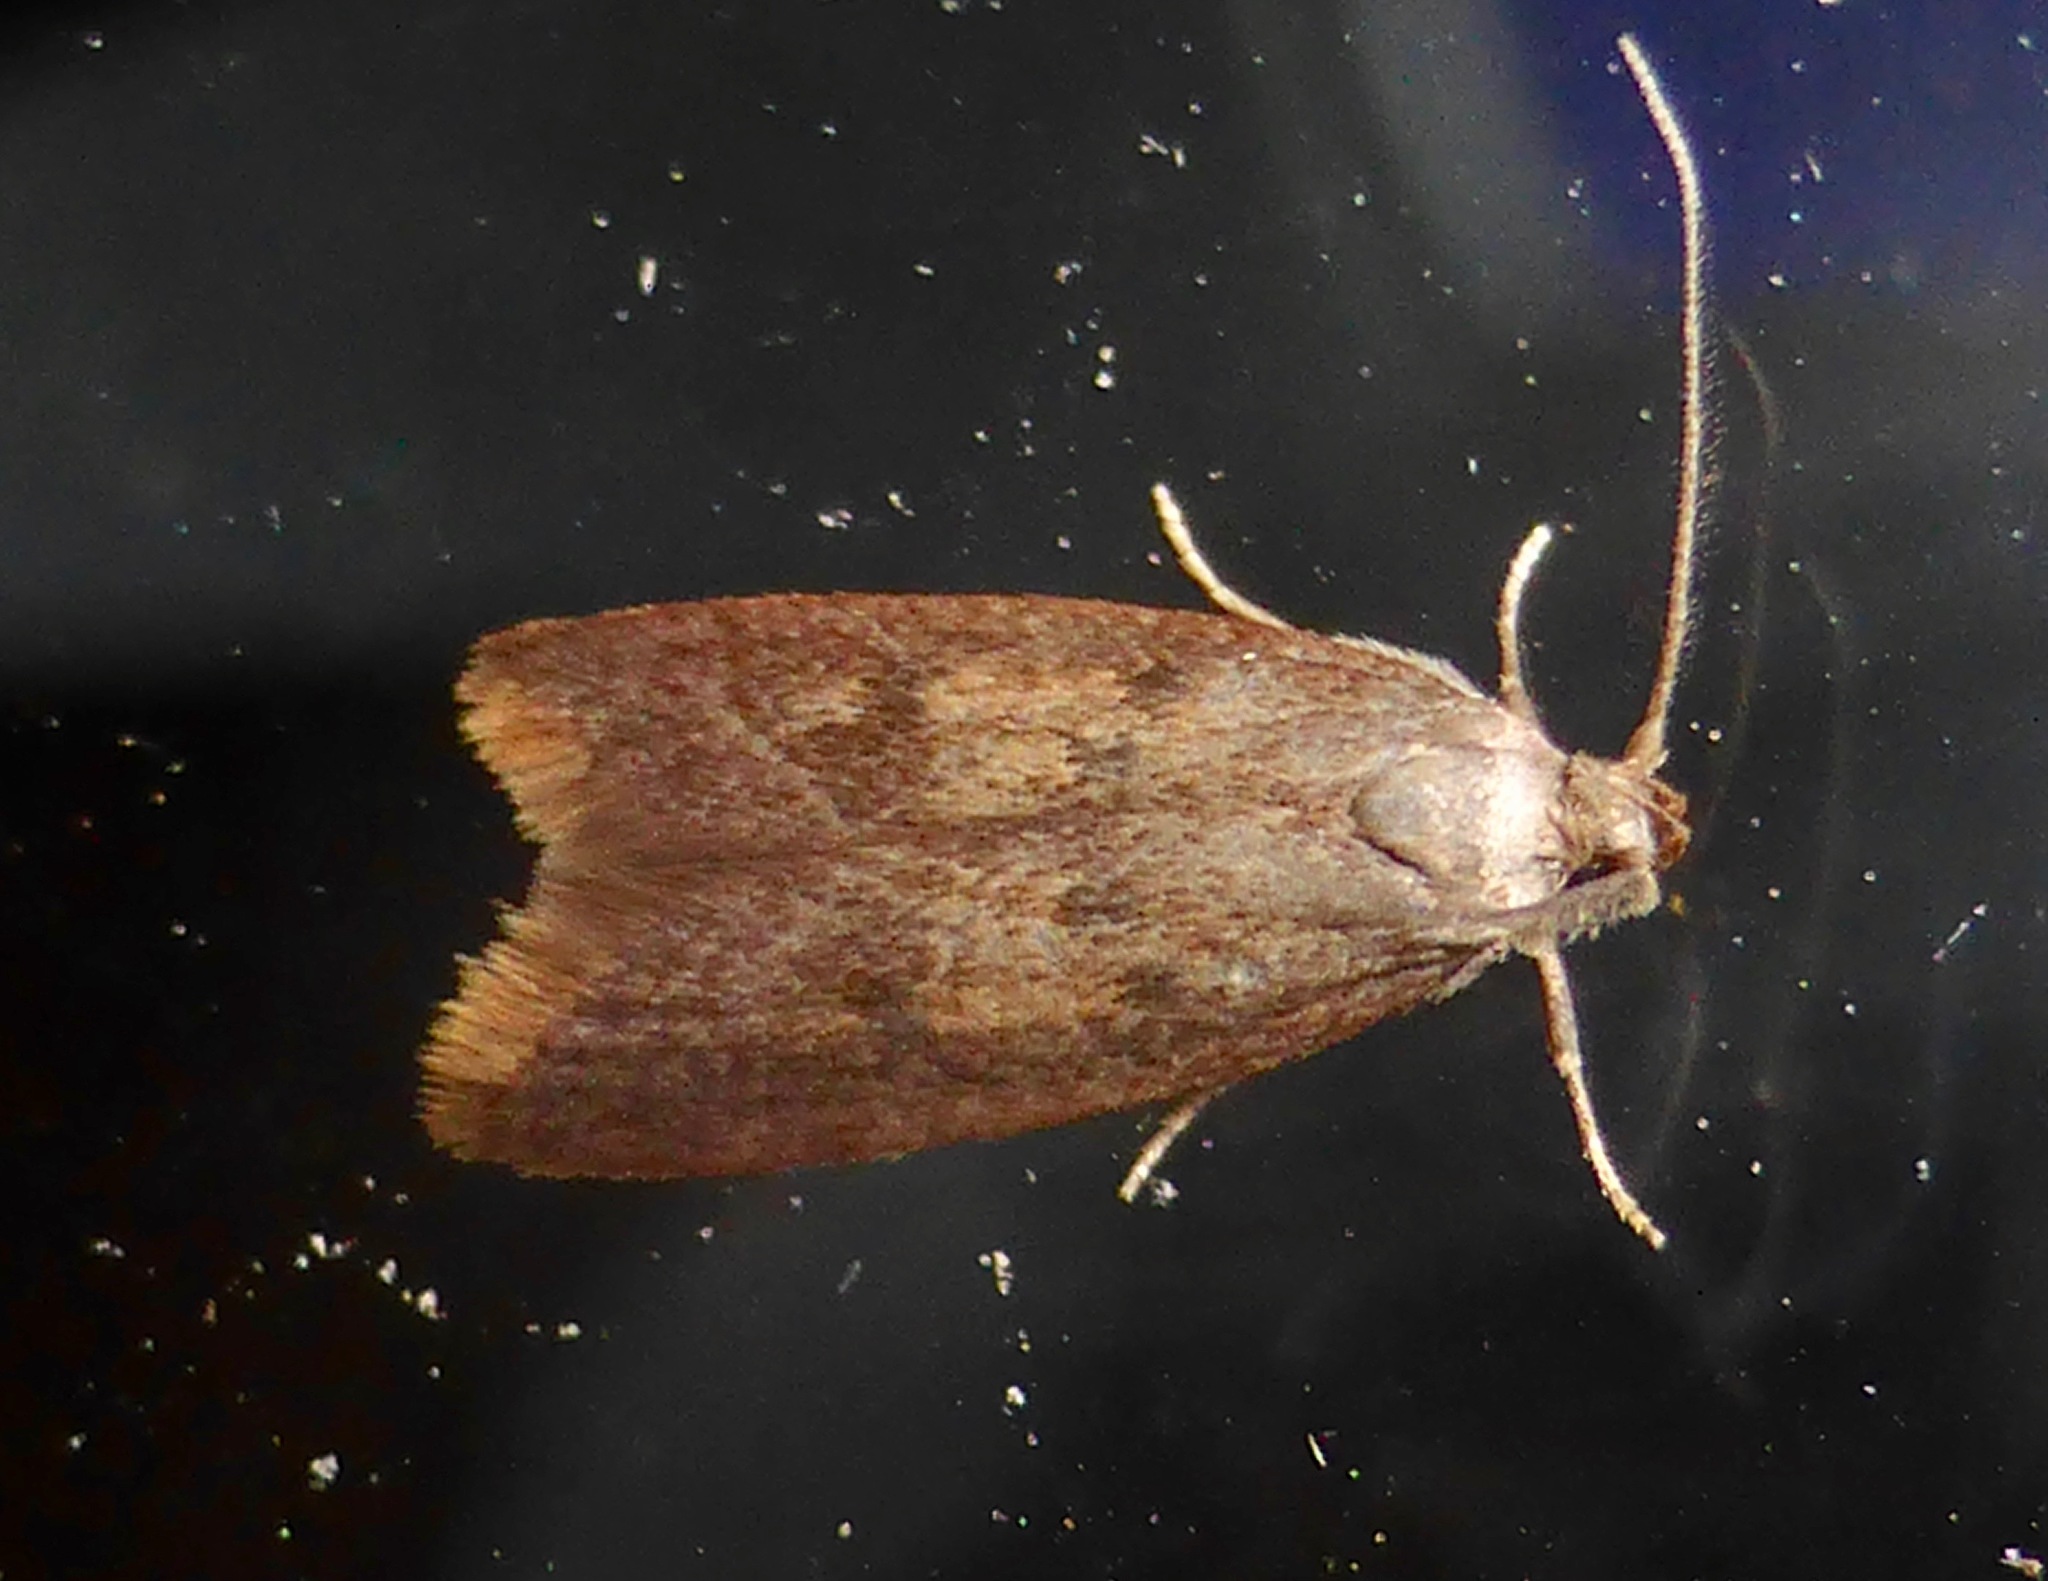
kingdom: Animalia
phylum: Arthropoda
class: Insecta
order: Lepidoptera
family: Oecophoridae
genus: Tachystola
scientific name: Tachystola acroxantha
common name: Ruddy streak
